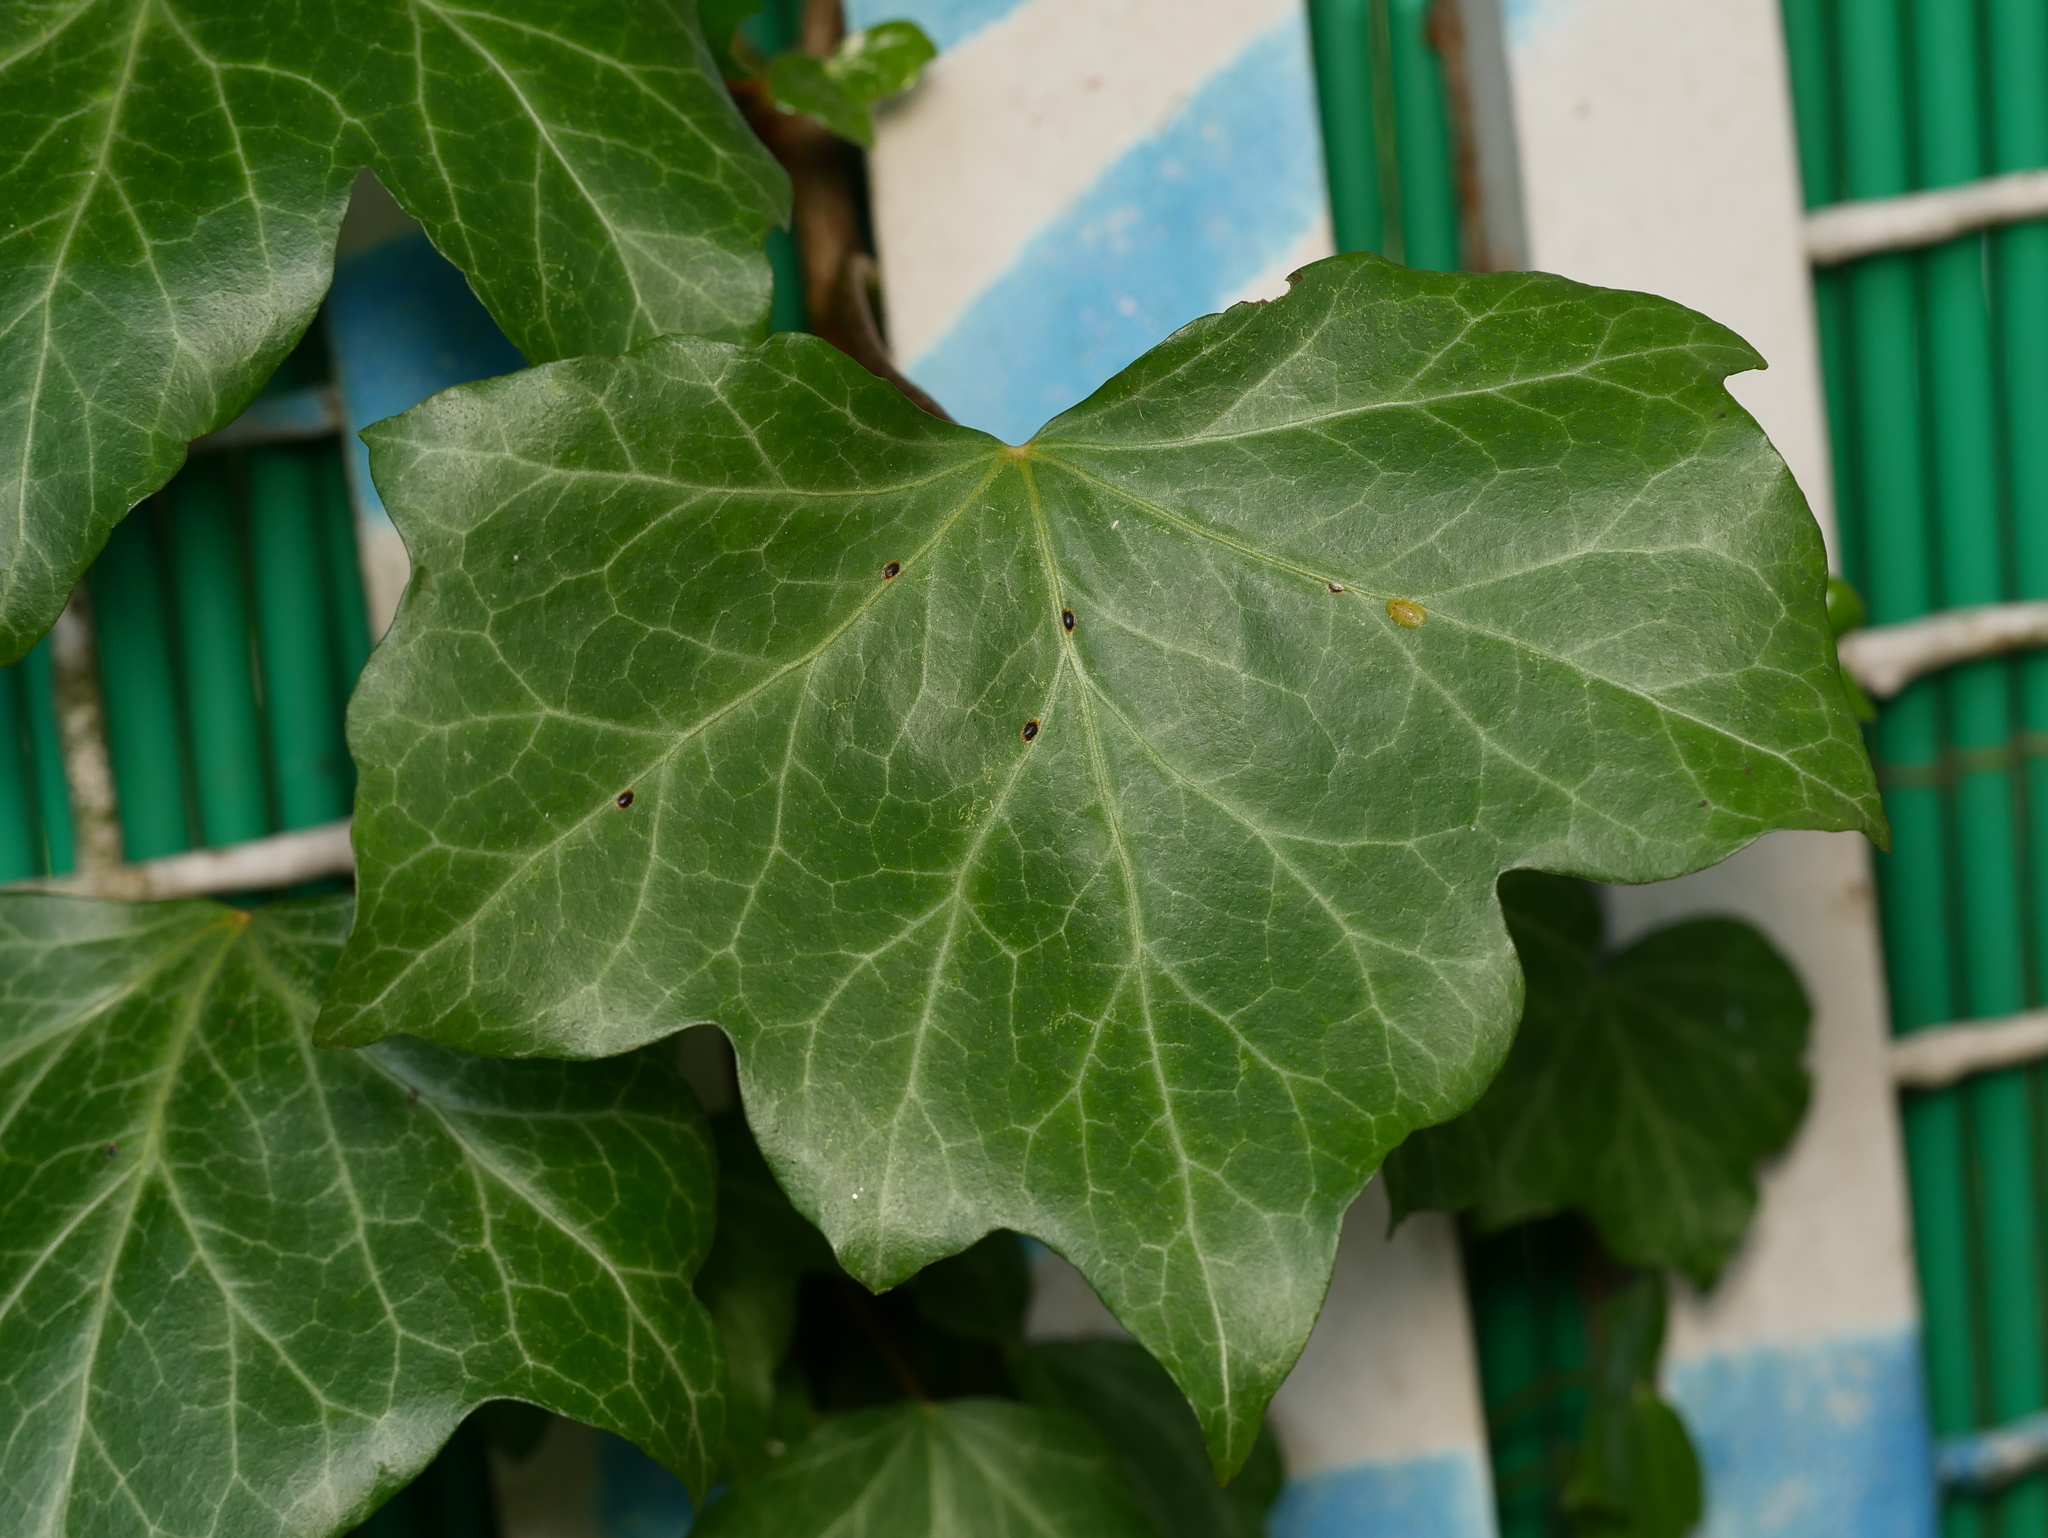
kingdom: Plantae
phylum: Tracheophyta
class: Magnoliopsida
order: Apiales
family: Araliaceae
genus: Hedera
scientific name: Hedera helix
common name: Ivy
